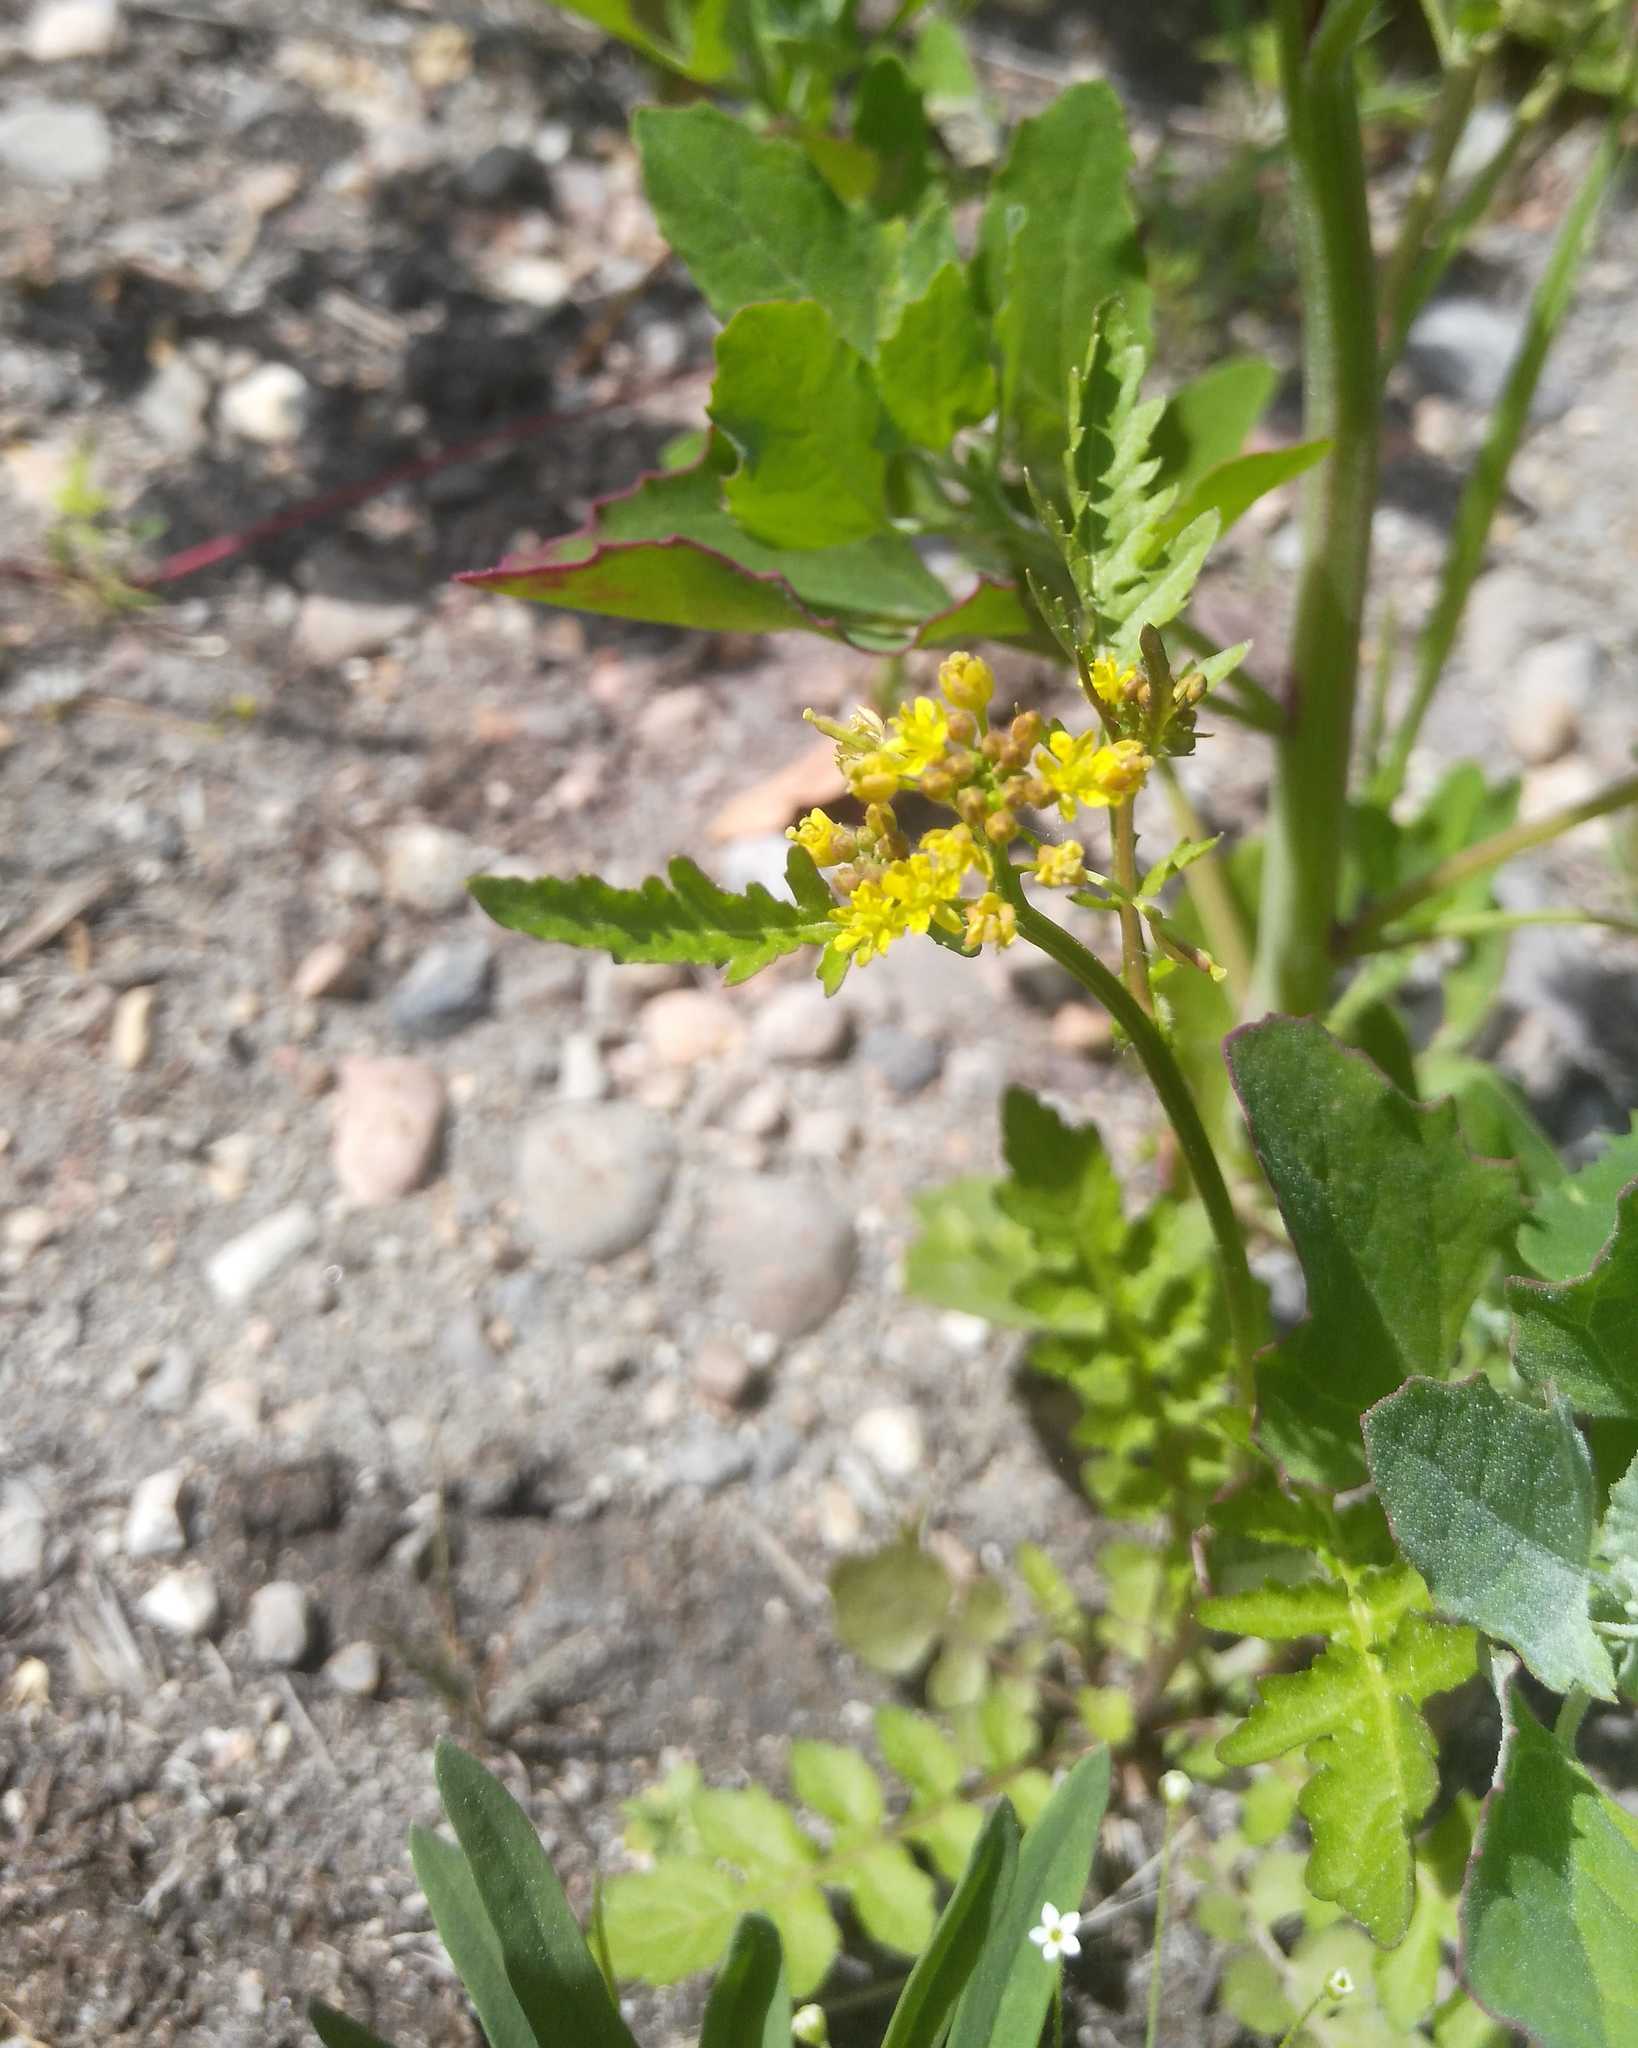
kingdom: Plantae
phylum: Tracheophyta
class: Magnoliopsida
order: Brassicales
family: Brassicaceae
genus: Rorippa
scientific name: Rorippa palustris
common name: Marsh yellow-cress
